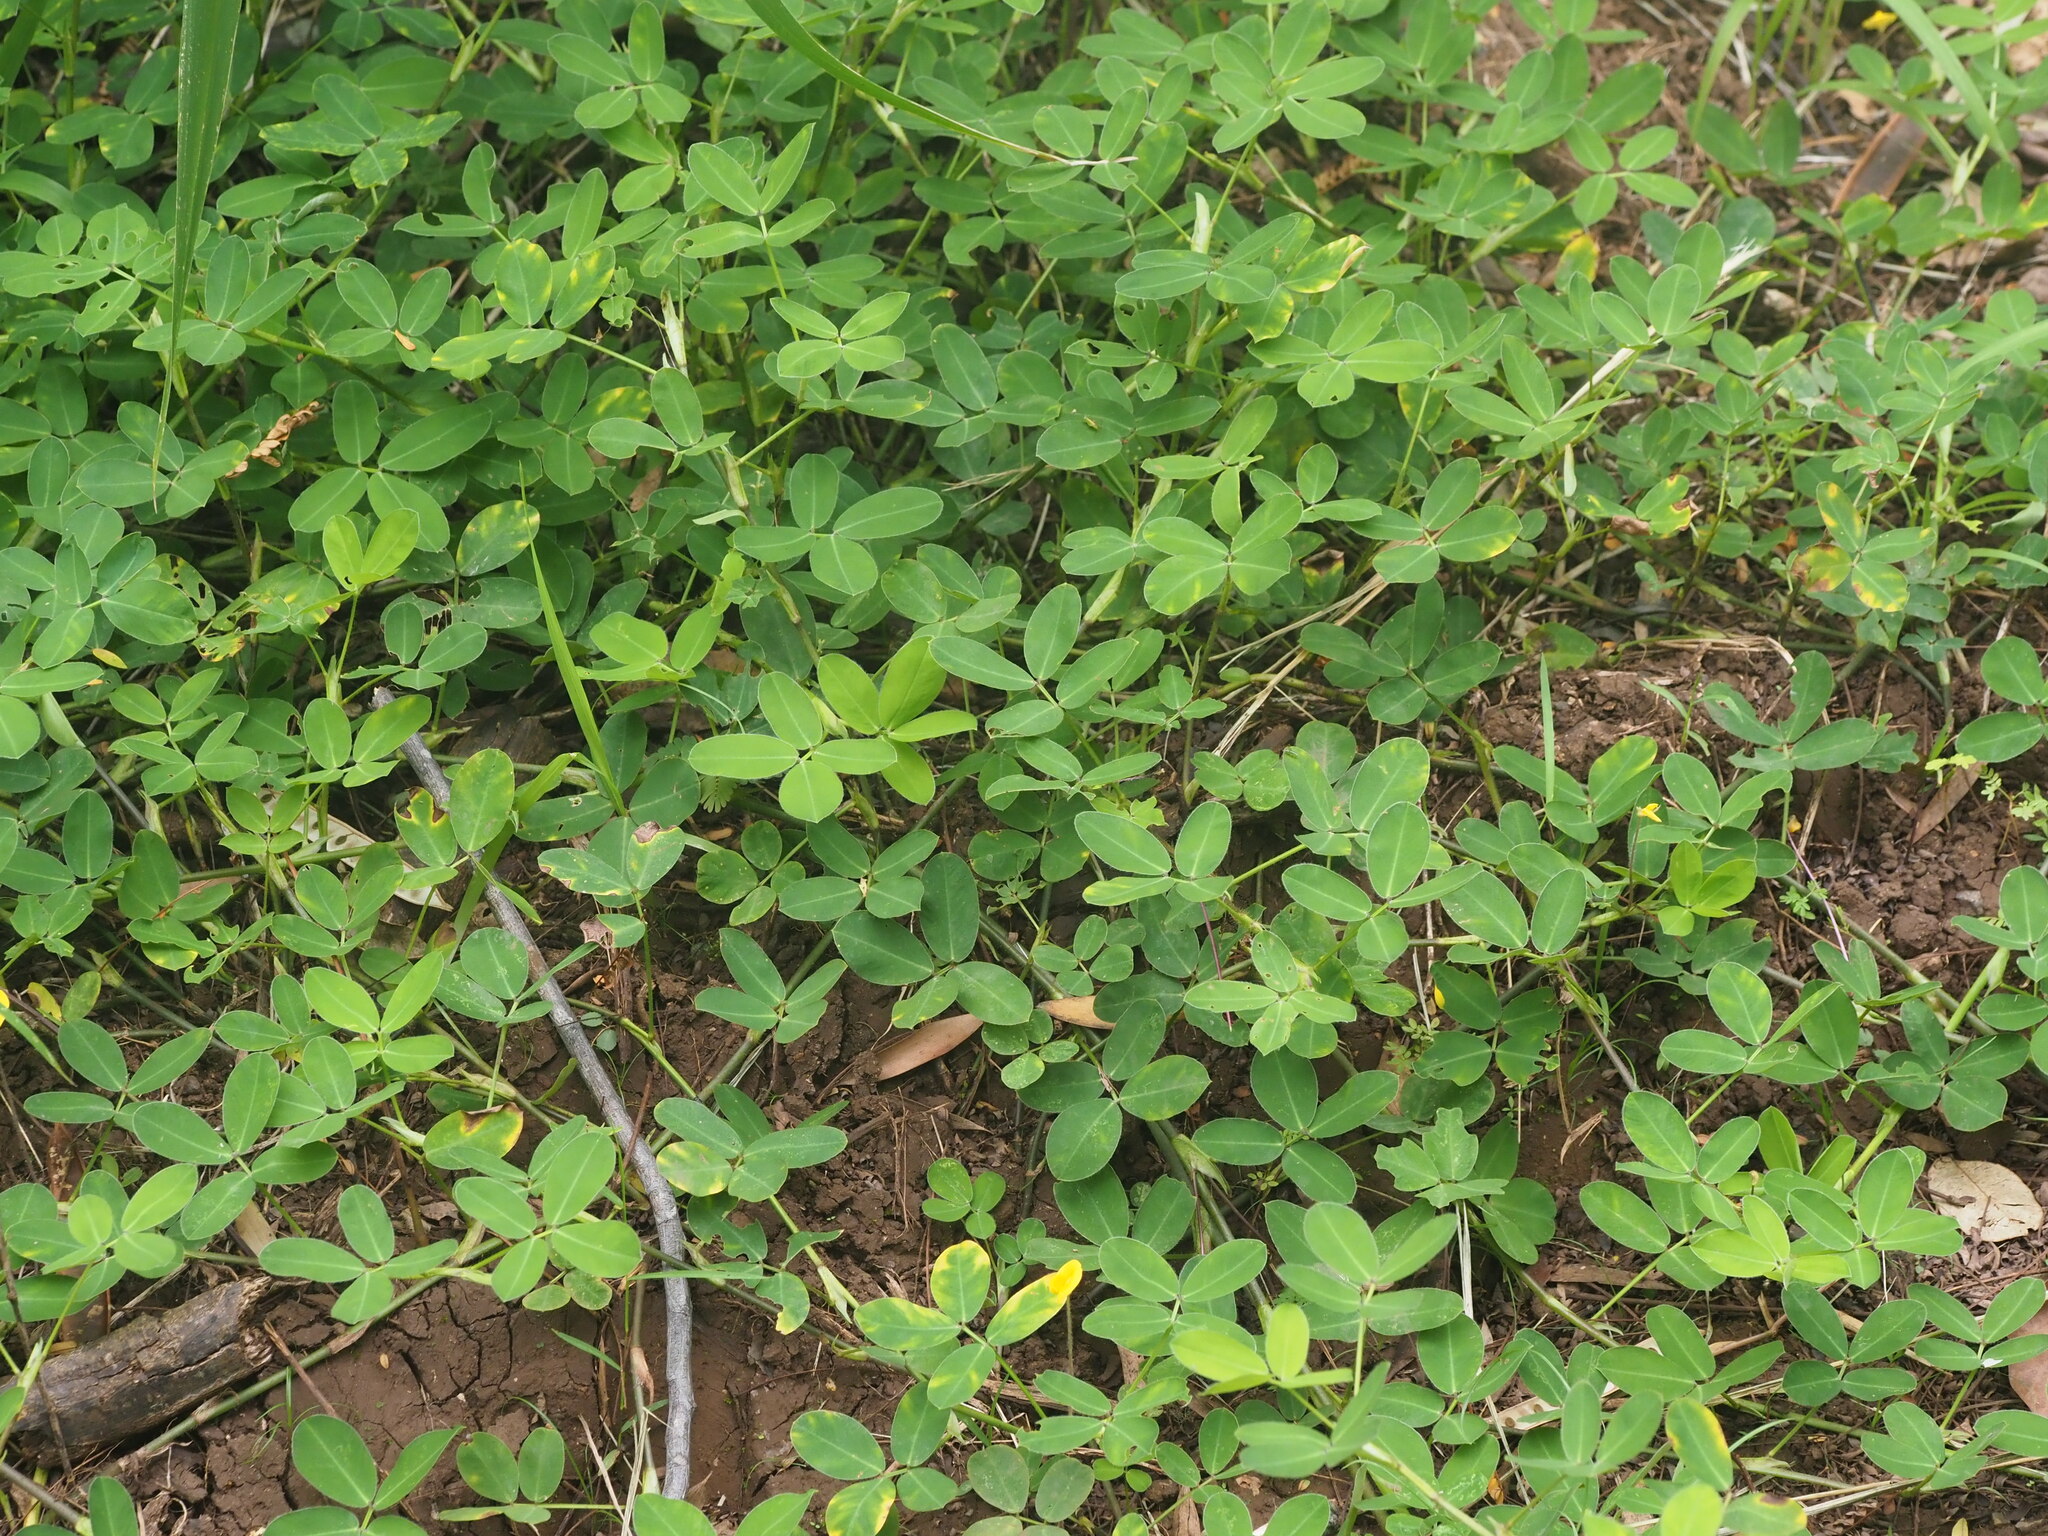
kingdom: Plantae
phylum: Tracheophyta
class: Magnoliopsida
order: Fabales
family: Fabaceae
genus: Arachis
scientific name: Arachis pintoi
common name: Pinto peanut
